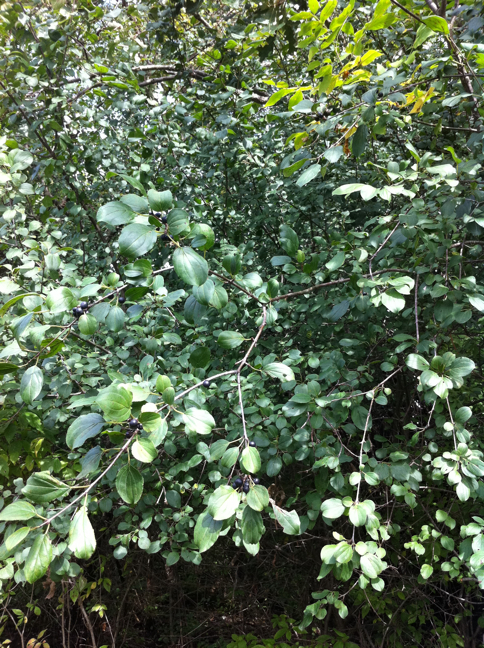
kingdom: Plantae
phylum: Tracheophyta
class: Magnoliopsida
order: Rosales
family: Rhamnaceae
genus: Rhamnus
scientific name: Rhamnus cathartica
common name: Common buckthorn
